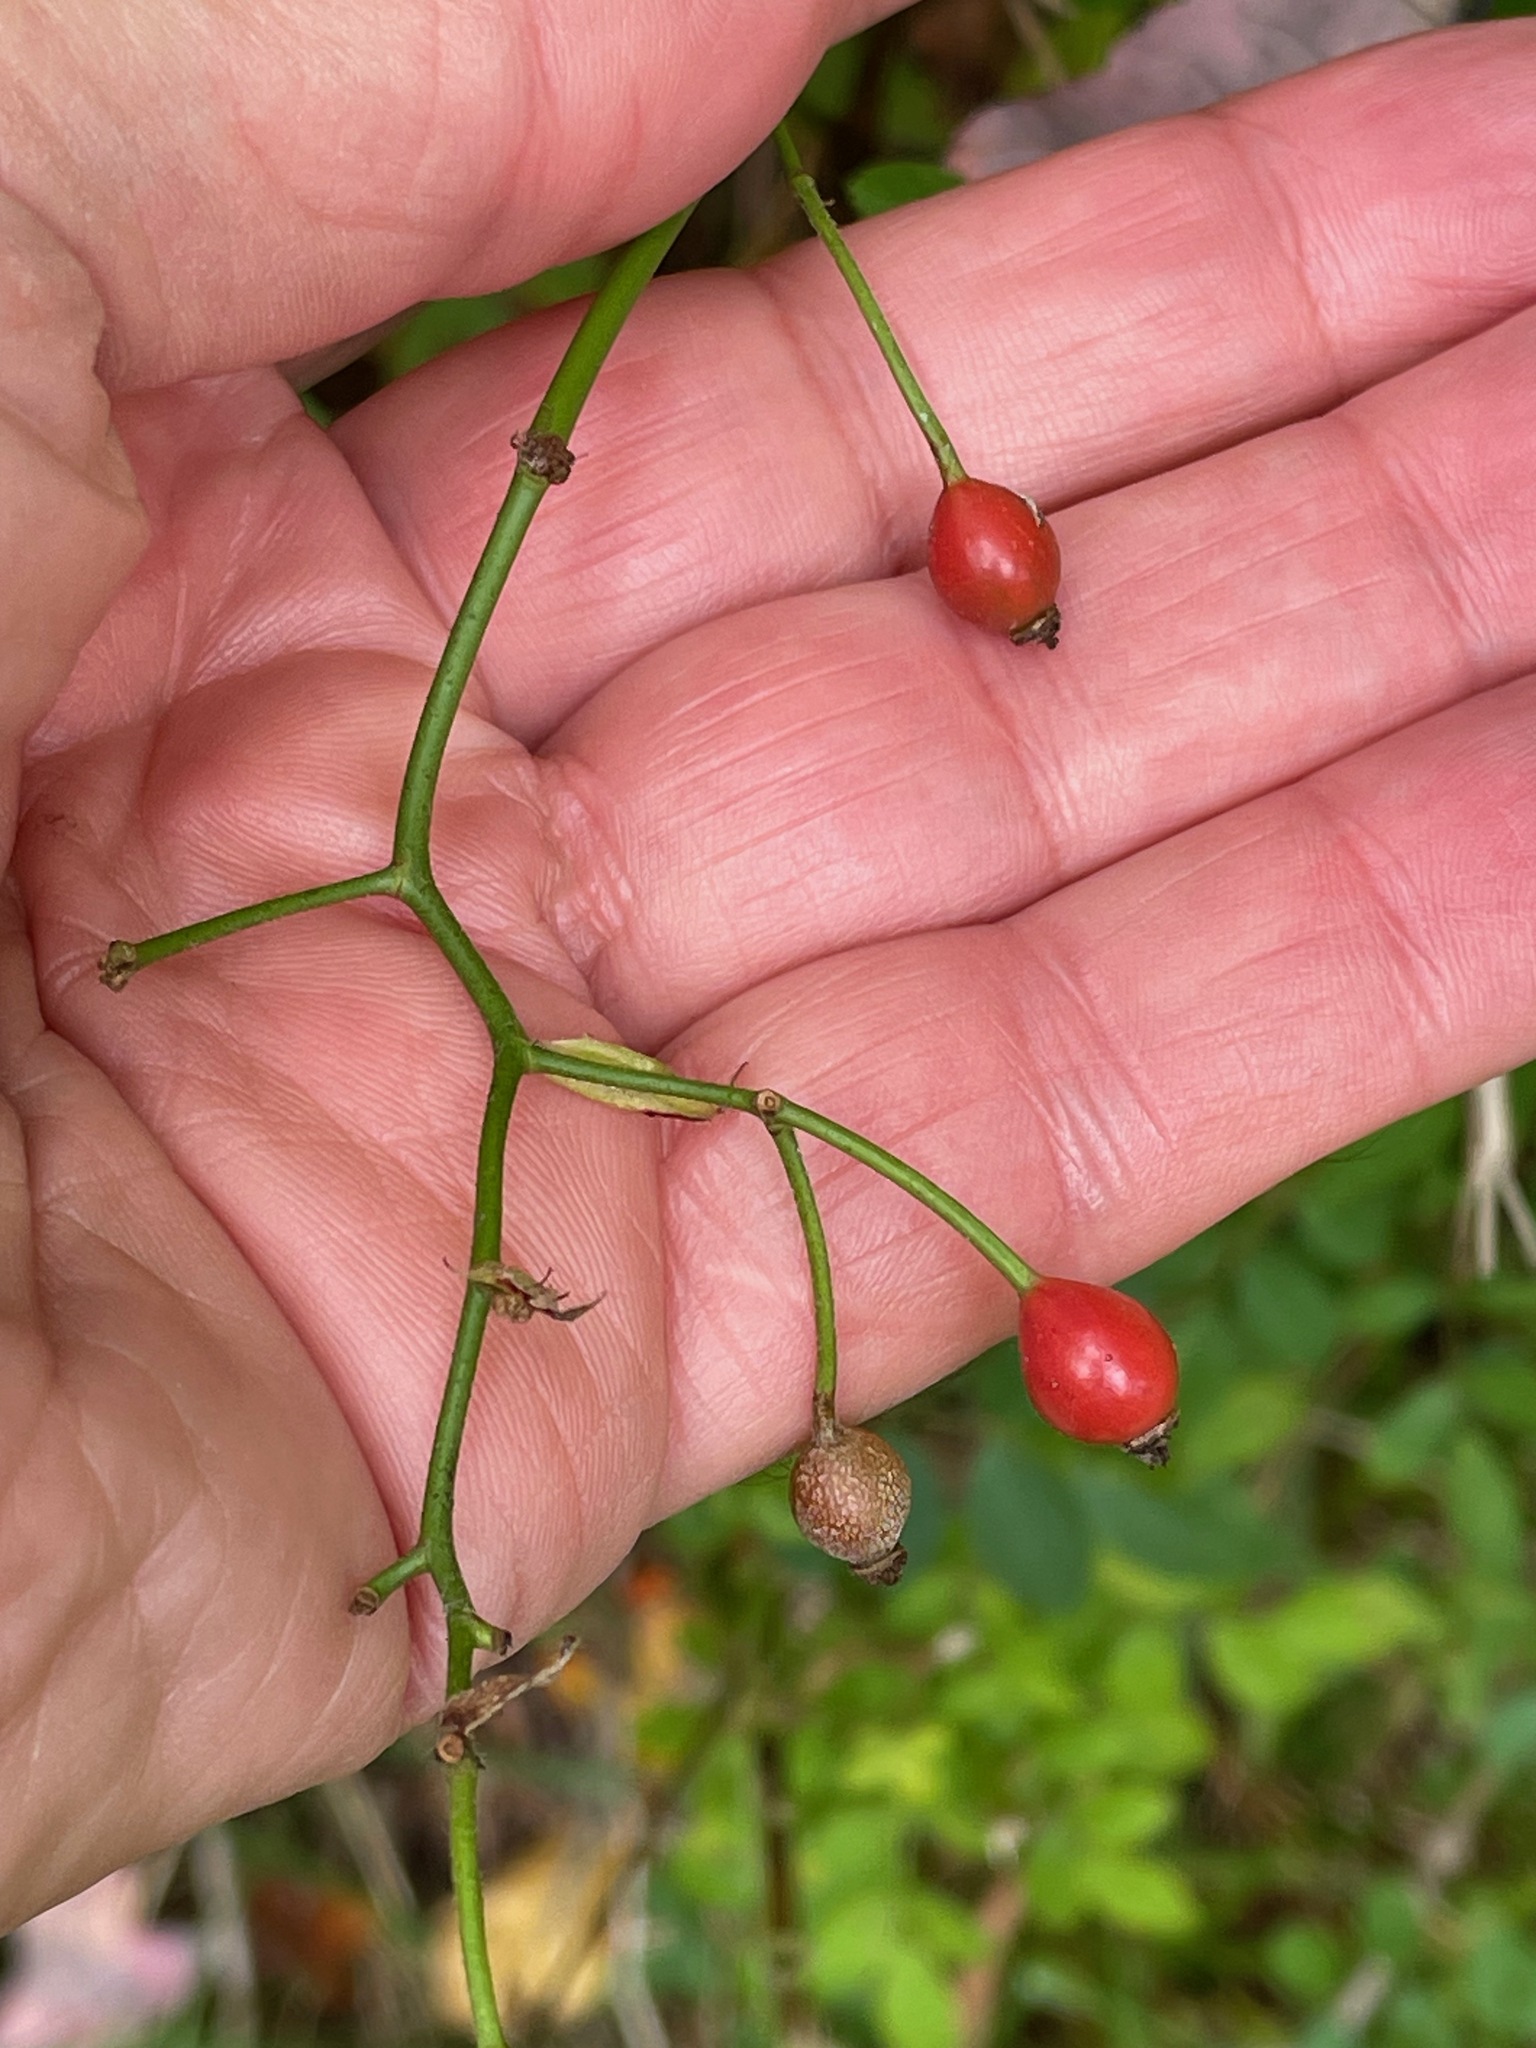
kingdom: Plantae
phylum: Tracheophyta
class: Magnoliopsida
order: Rosales
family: Rosaceae
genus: Rosa
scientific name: Rosa multiflora
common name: Multiflora rose
